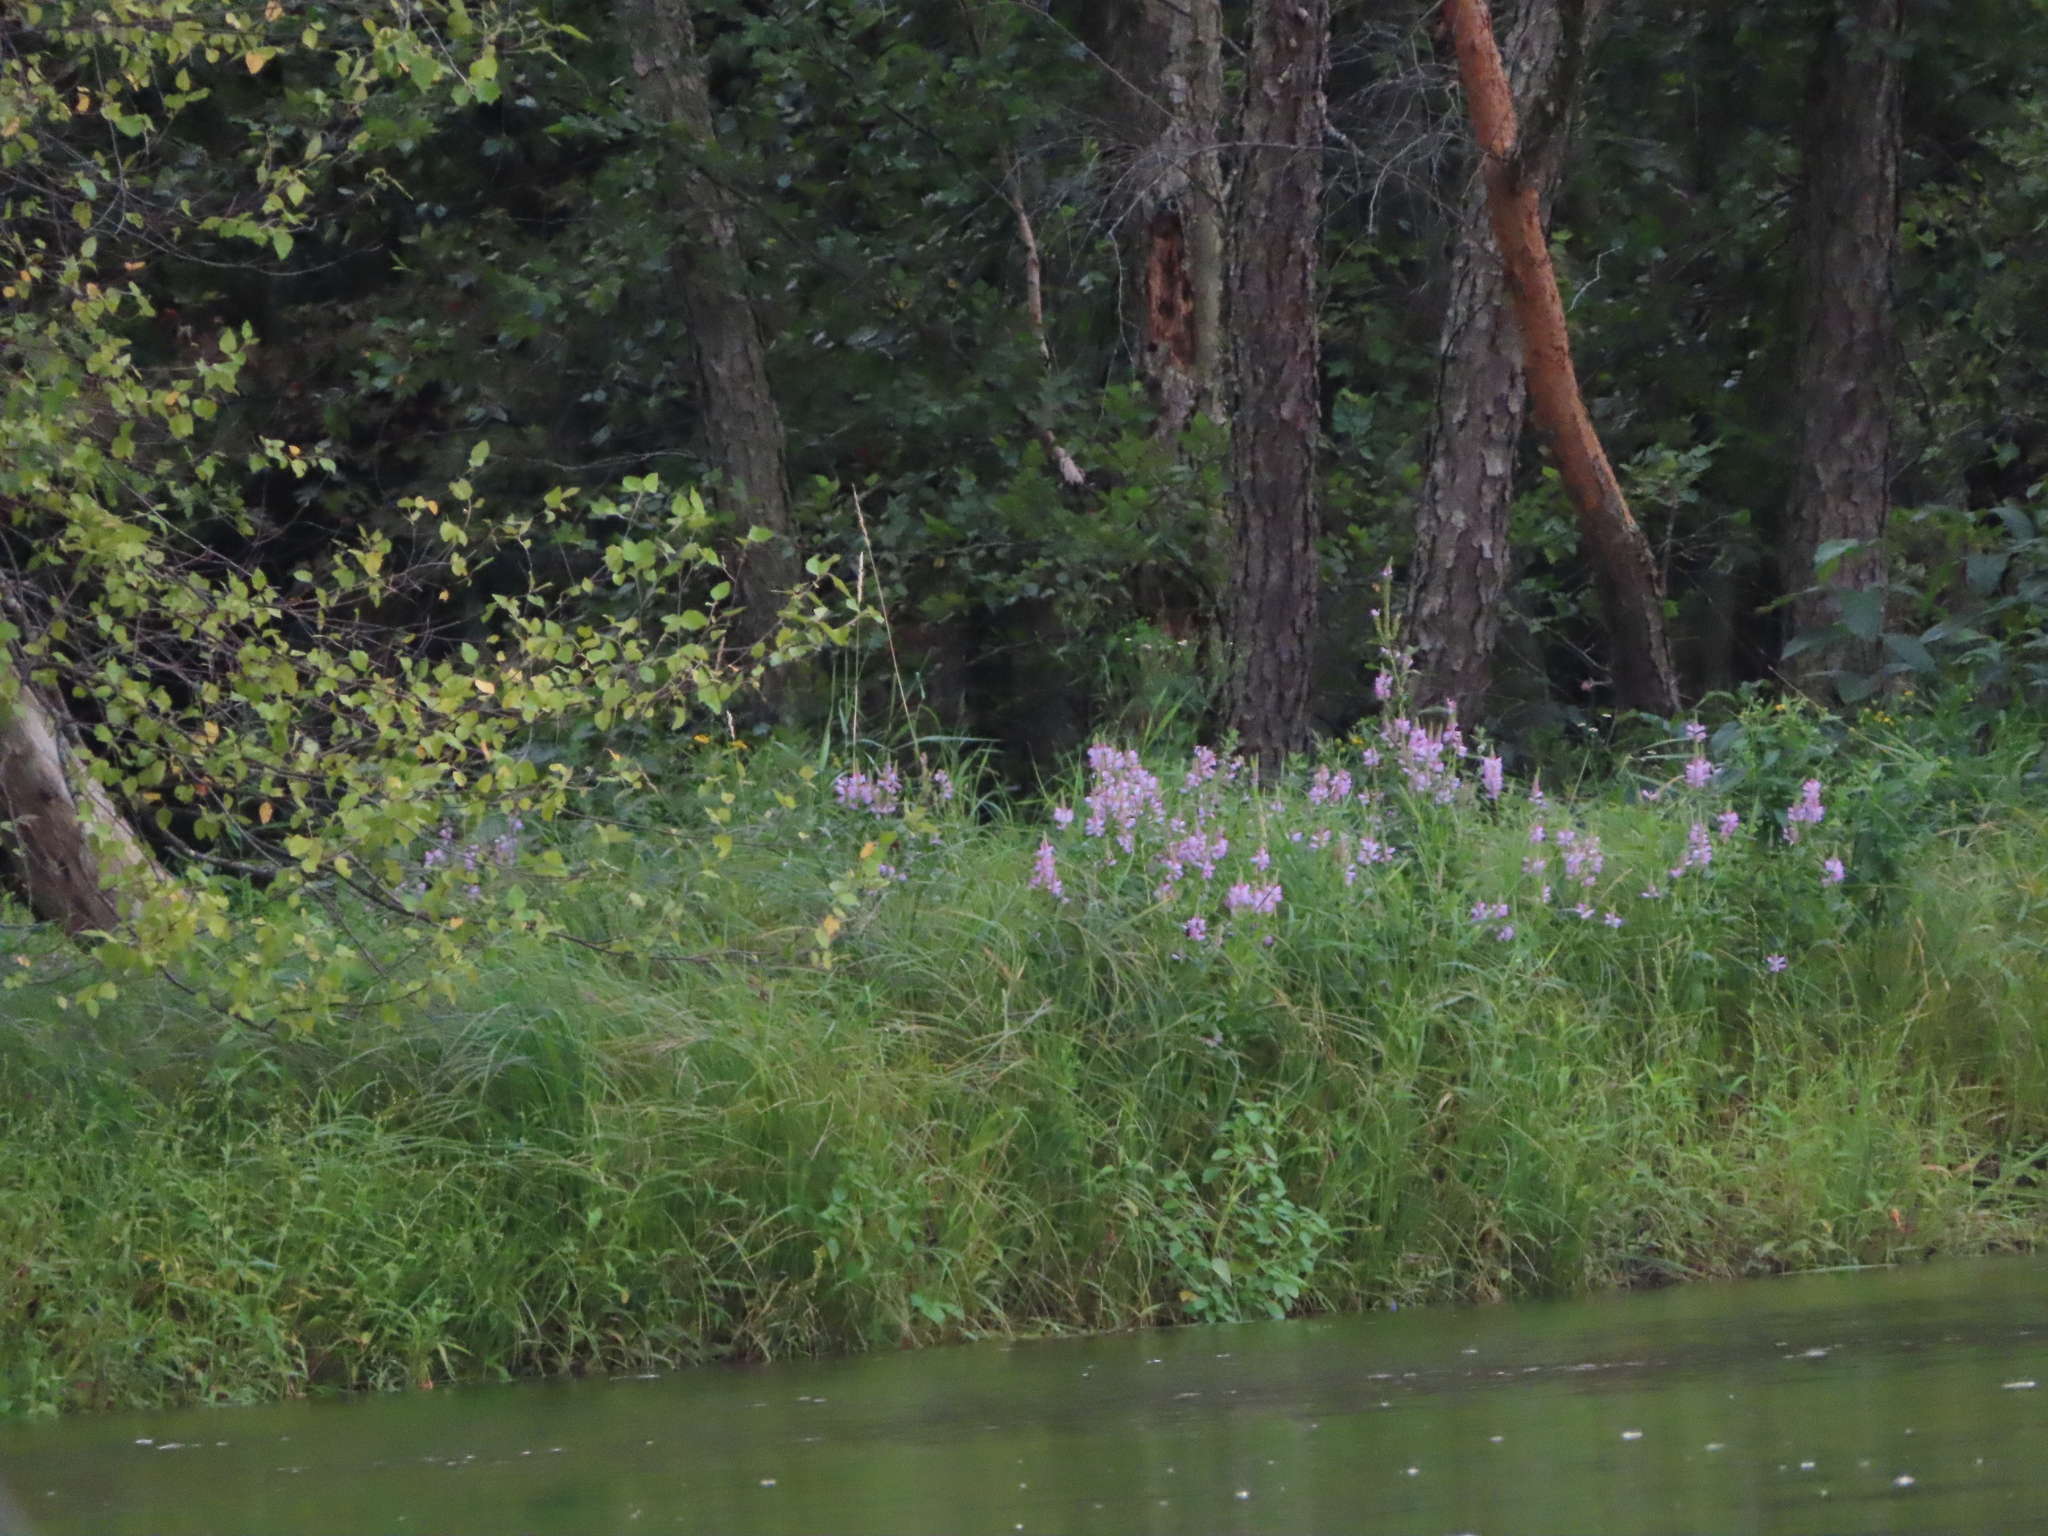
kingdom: Plantae
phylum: Tracheophyta
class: Magnoliopsida
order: Lamiales
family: Lamiaceae
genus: Physostegia
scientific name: Physostegia virginiana
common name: Obedient-plant
